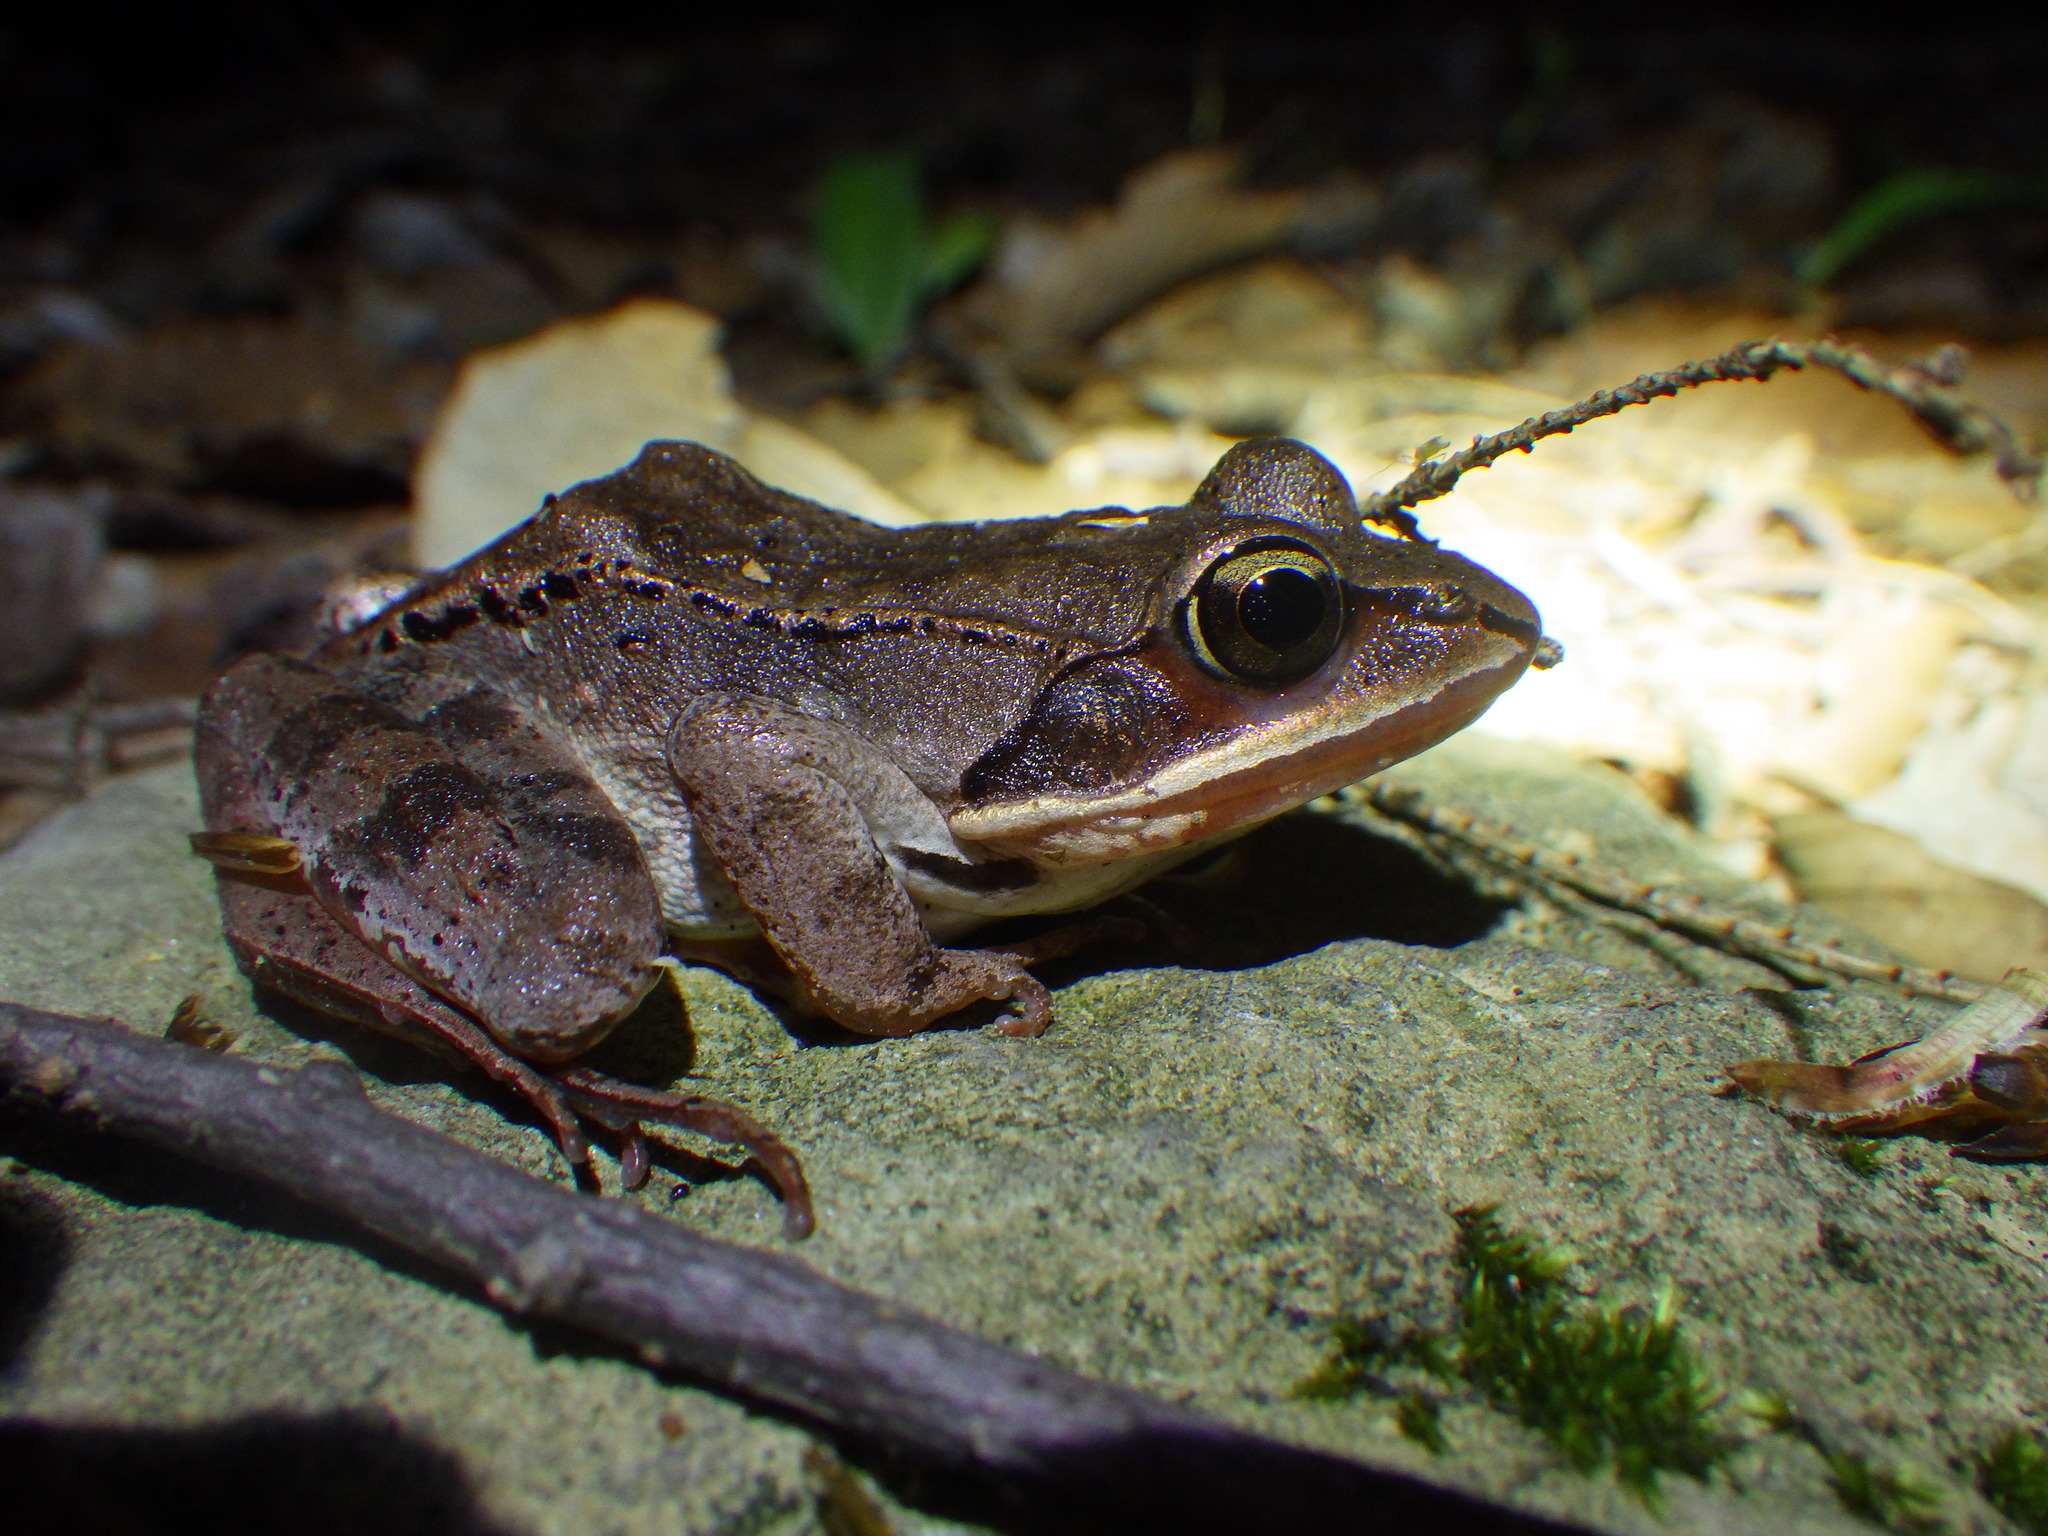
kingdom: Animalia
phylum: Chordata
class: Amphibia
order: Anura
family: Ranidae
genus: Lithobates
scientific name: Lithobates sylvaticus
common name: Wood frog
